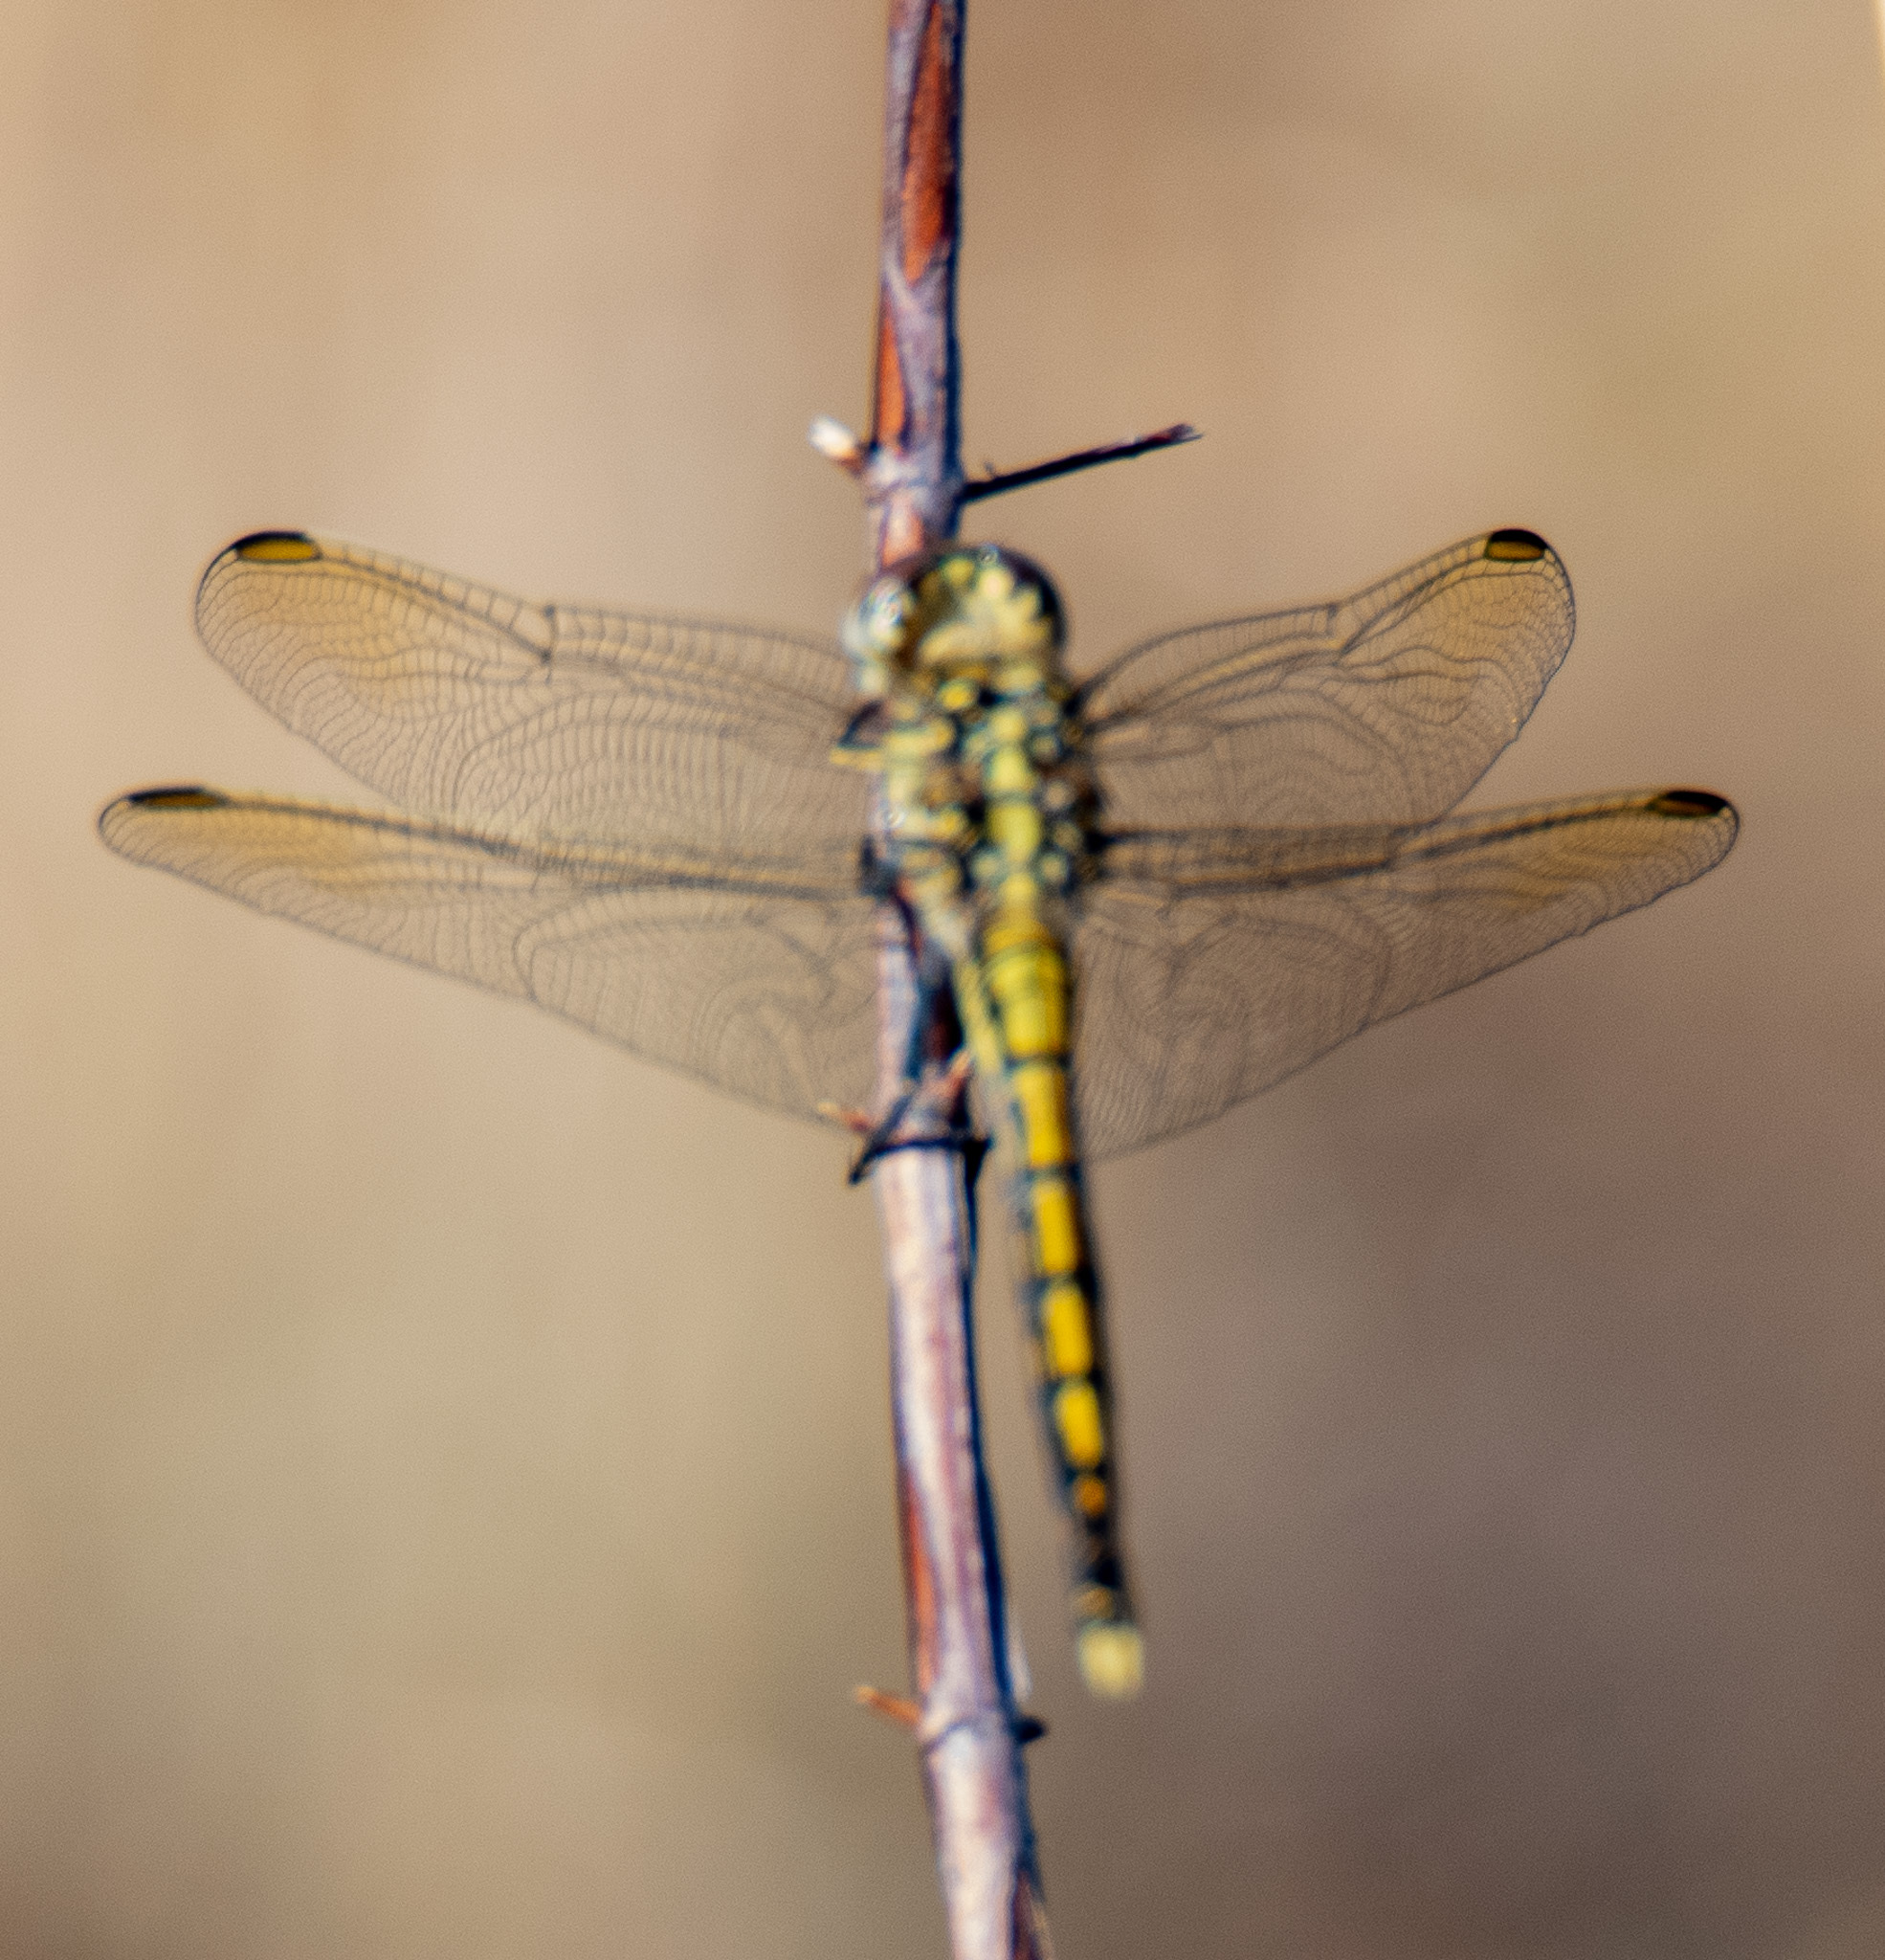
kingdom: Animalia
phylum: Arthropoda
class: Insecta
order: Odonata
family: Libellulidae
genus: Orthetrum
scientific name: Orthetrum caledonicum
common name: Blue skimmer
